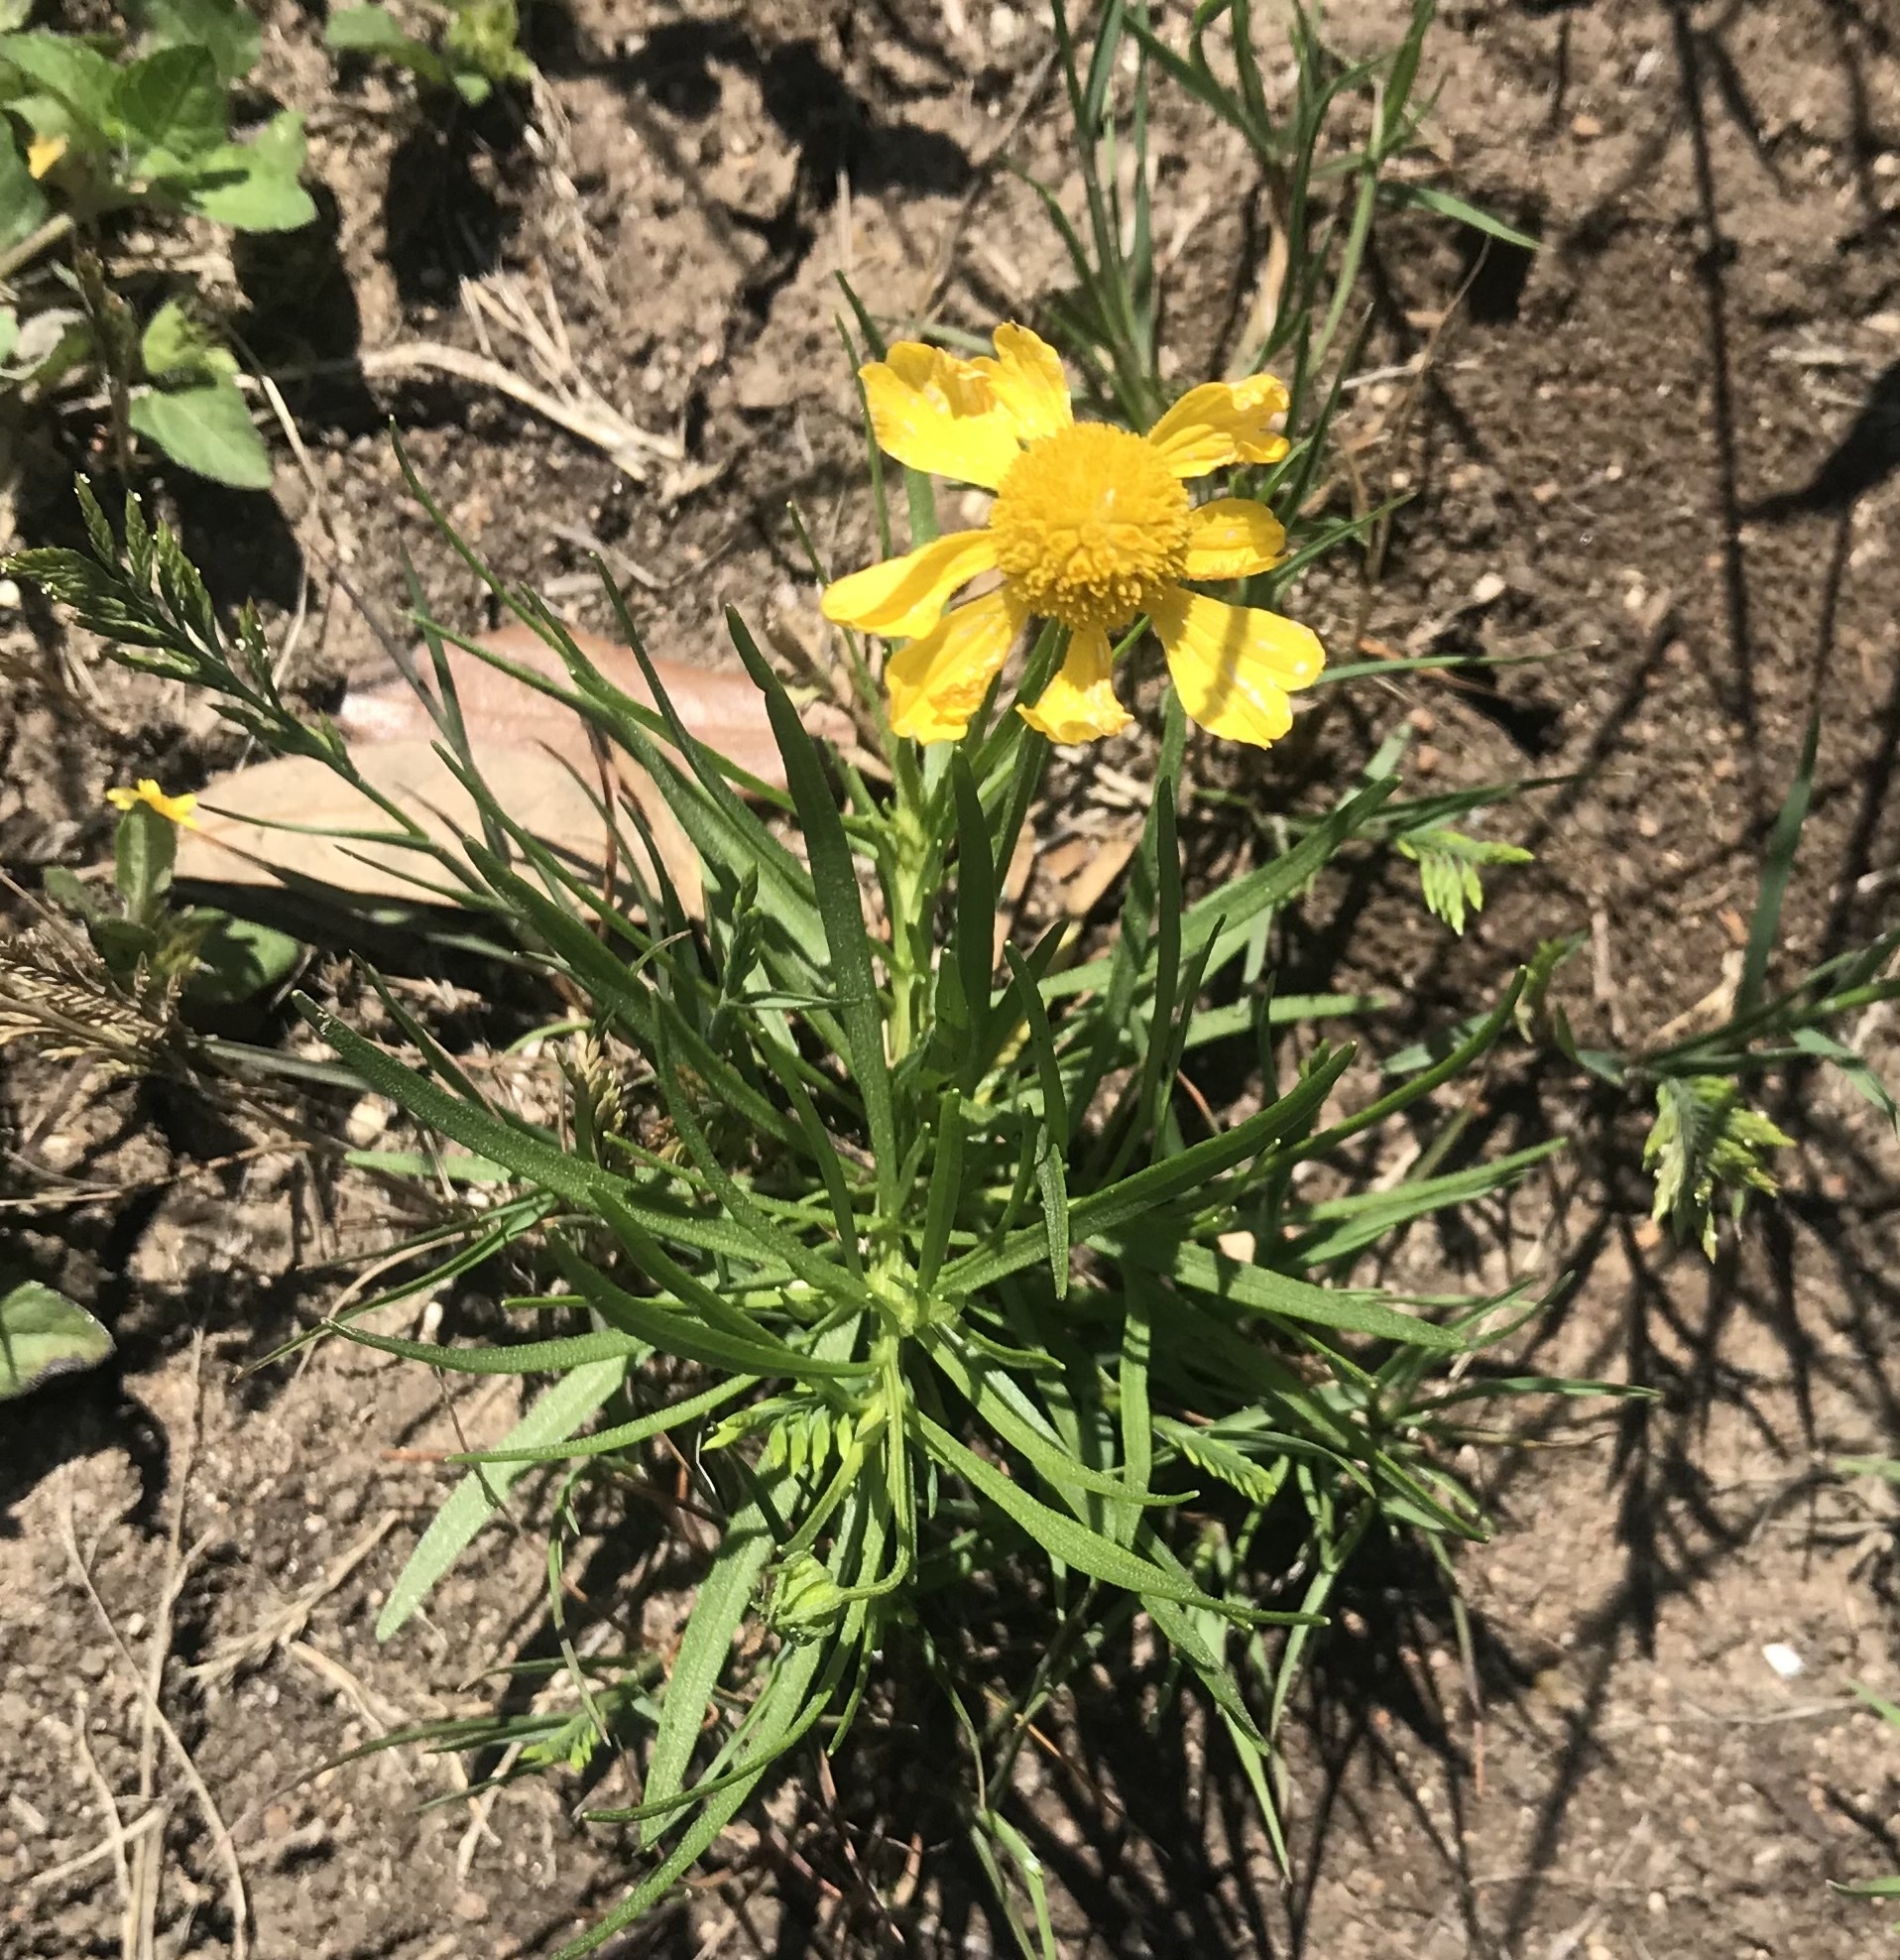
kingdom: Plantae
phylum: Tracheophyta
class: Magnoliopsida
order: Asterales
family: Asteraceae
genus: Helenium
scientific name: Helenium amarum
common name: Bitter sneezeweed
